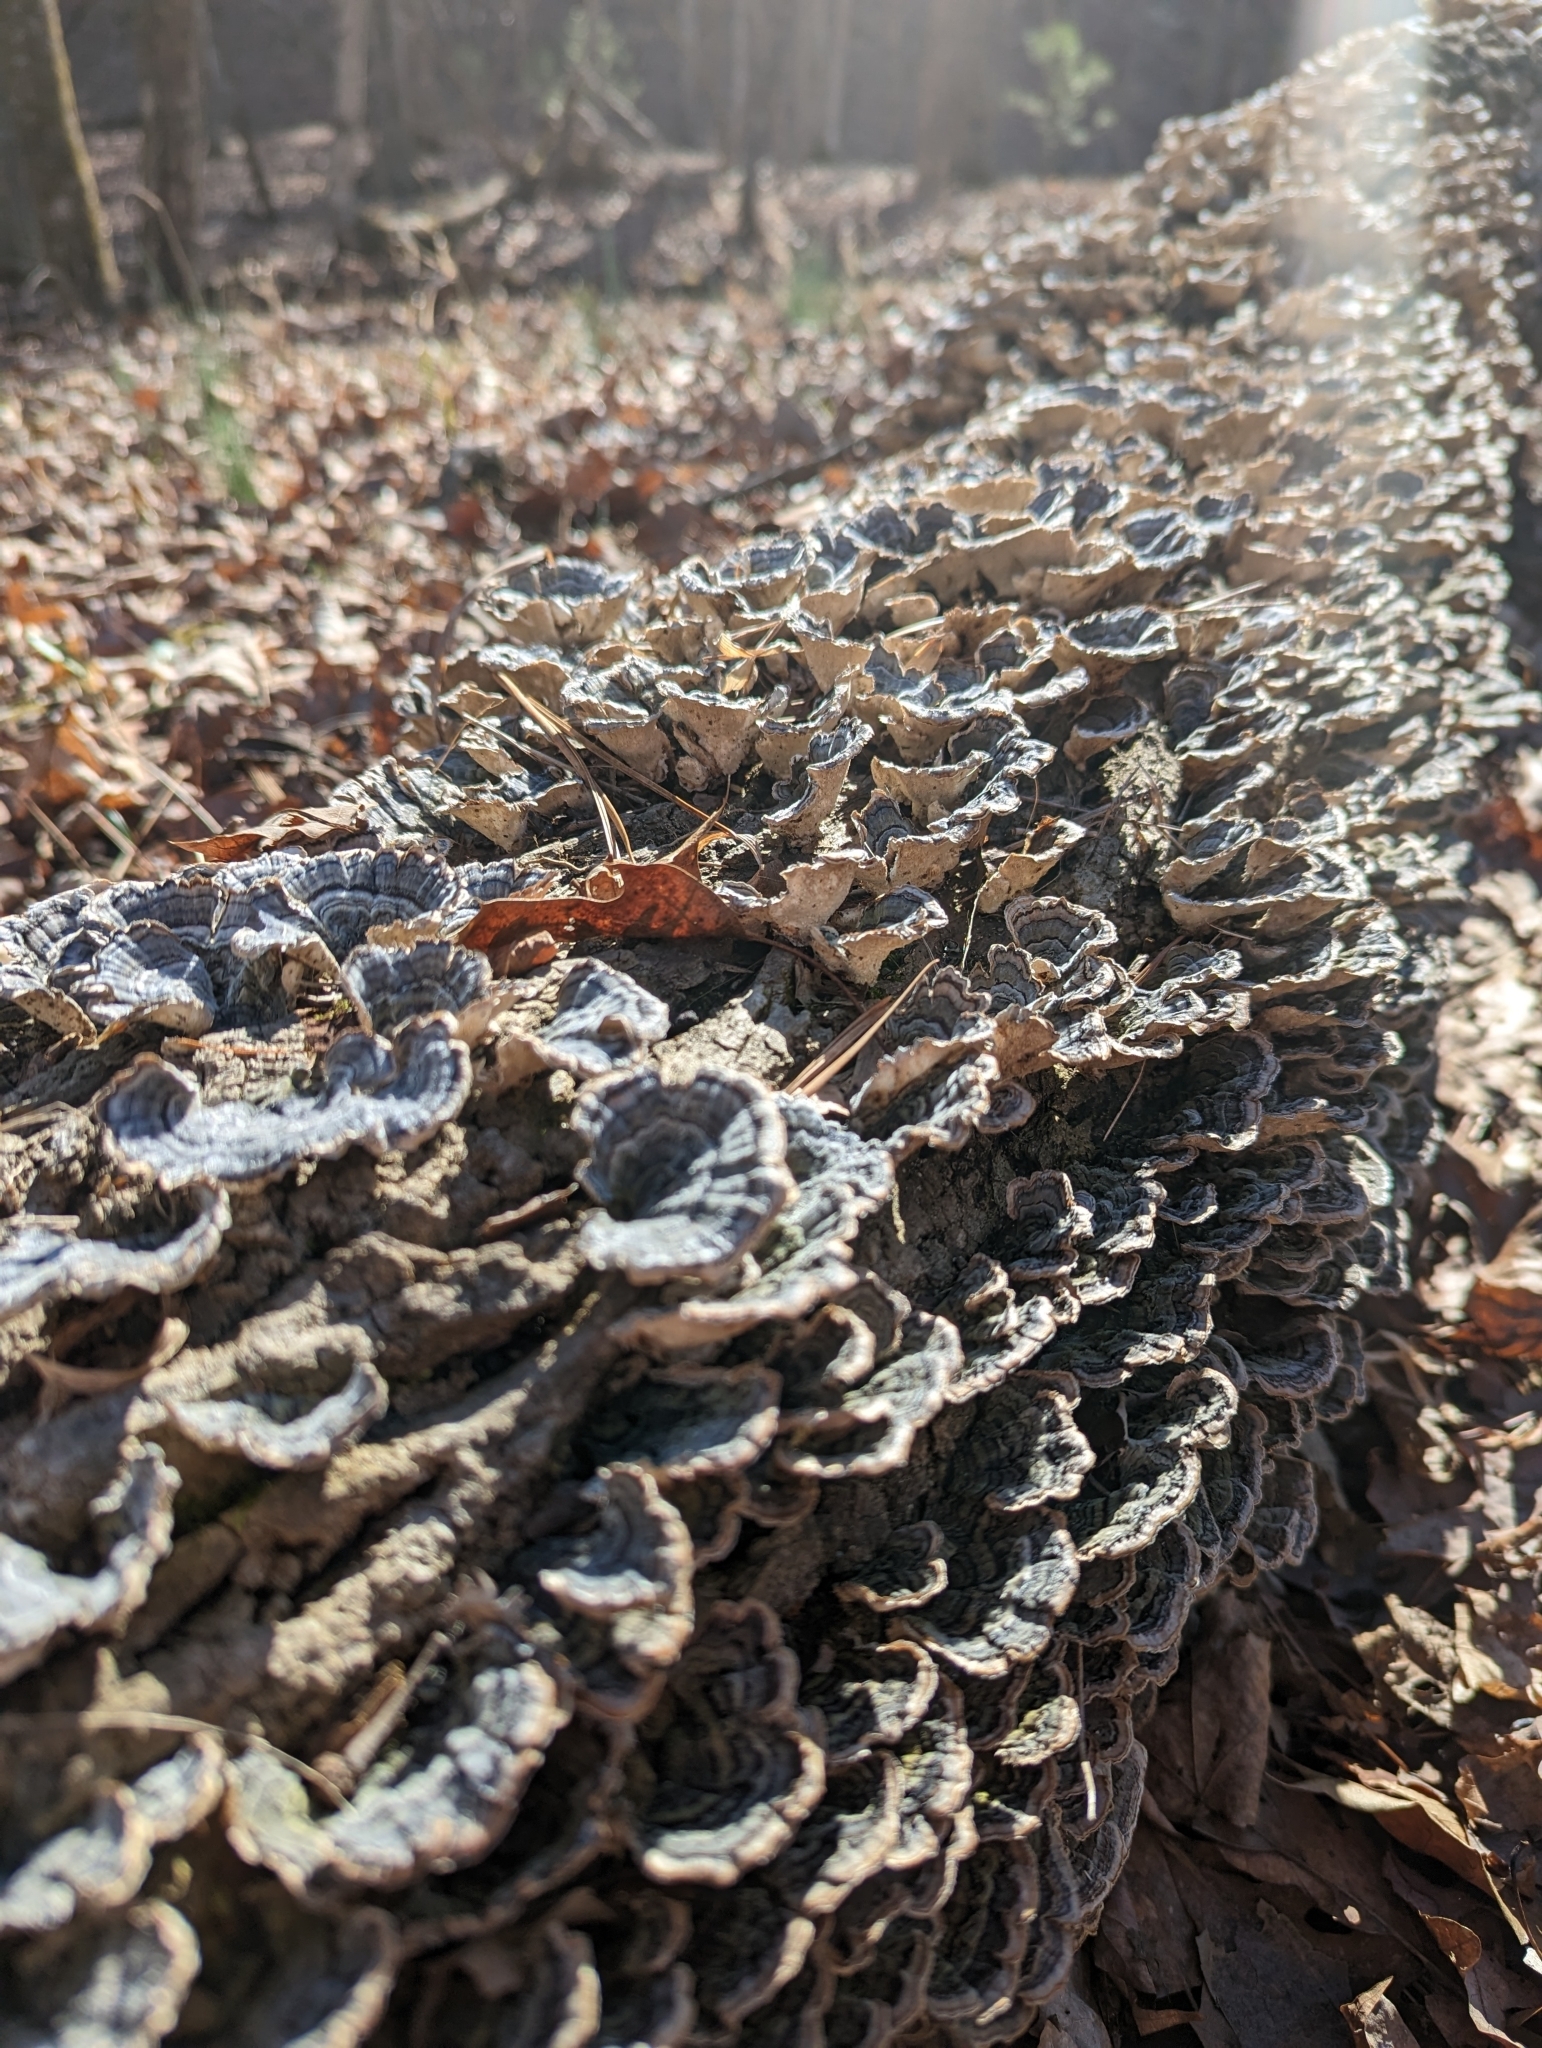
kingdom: Fungi
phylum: Basidiomycota
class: Agaricomycetes
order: Polyporales
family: Polyporaceae
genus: Trametes
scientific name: Trametes versicolor
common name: Turkeytail
